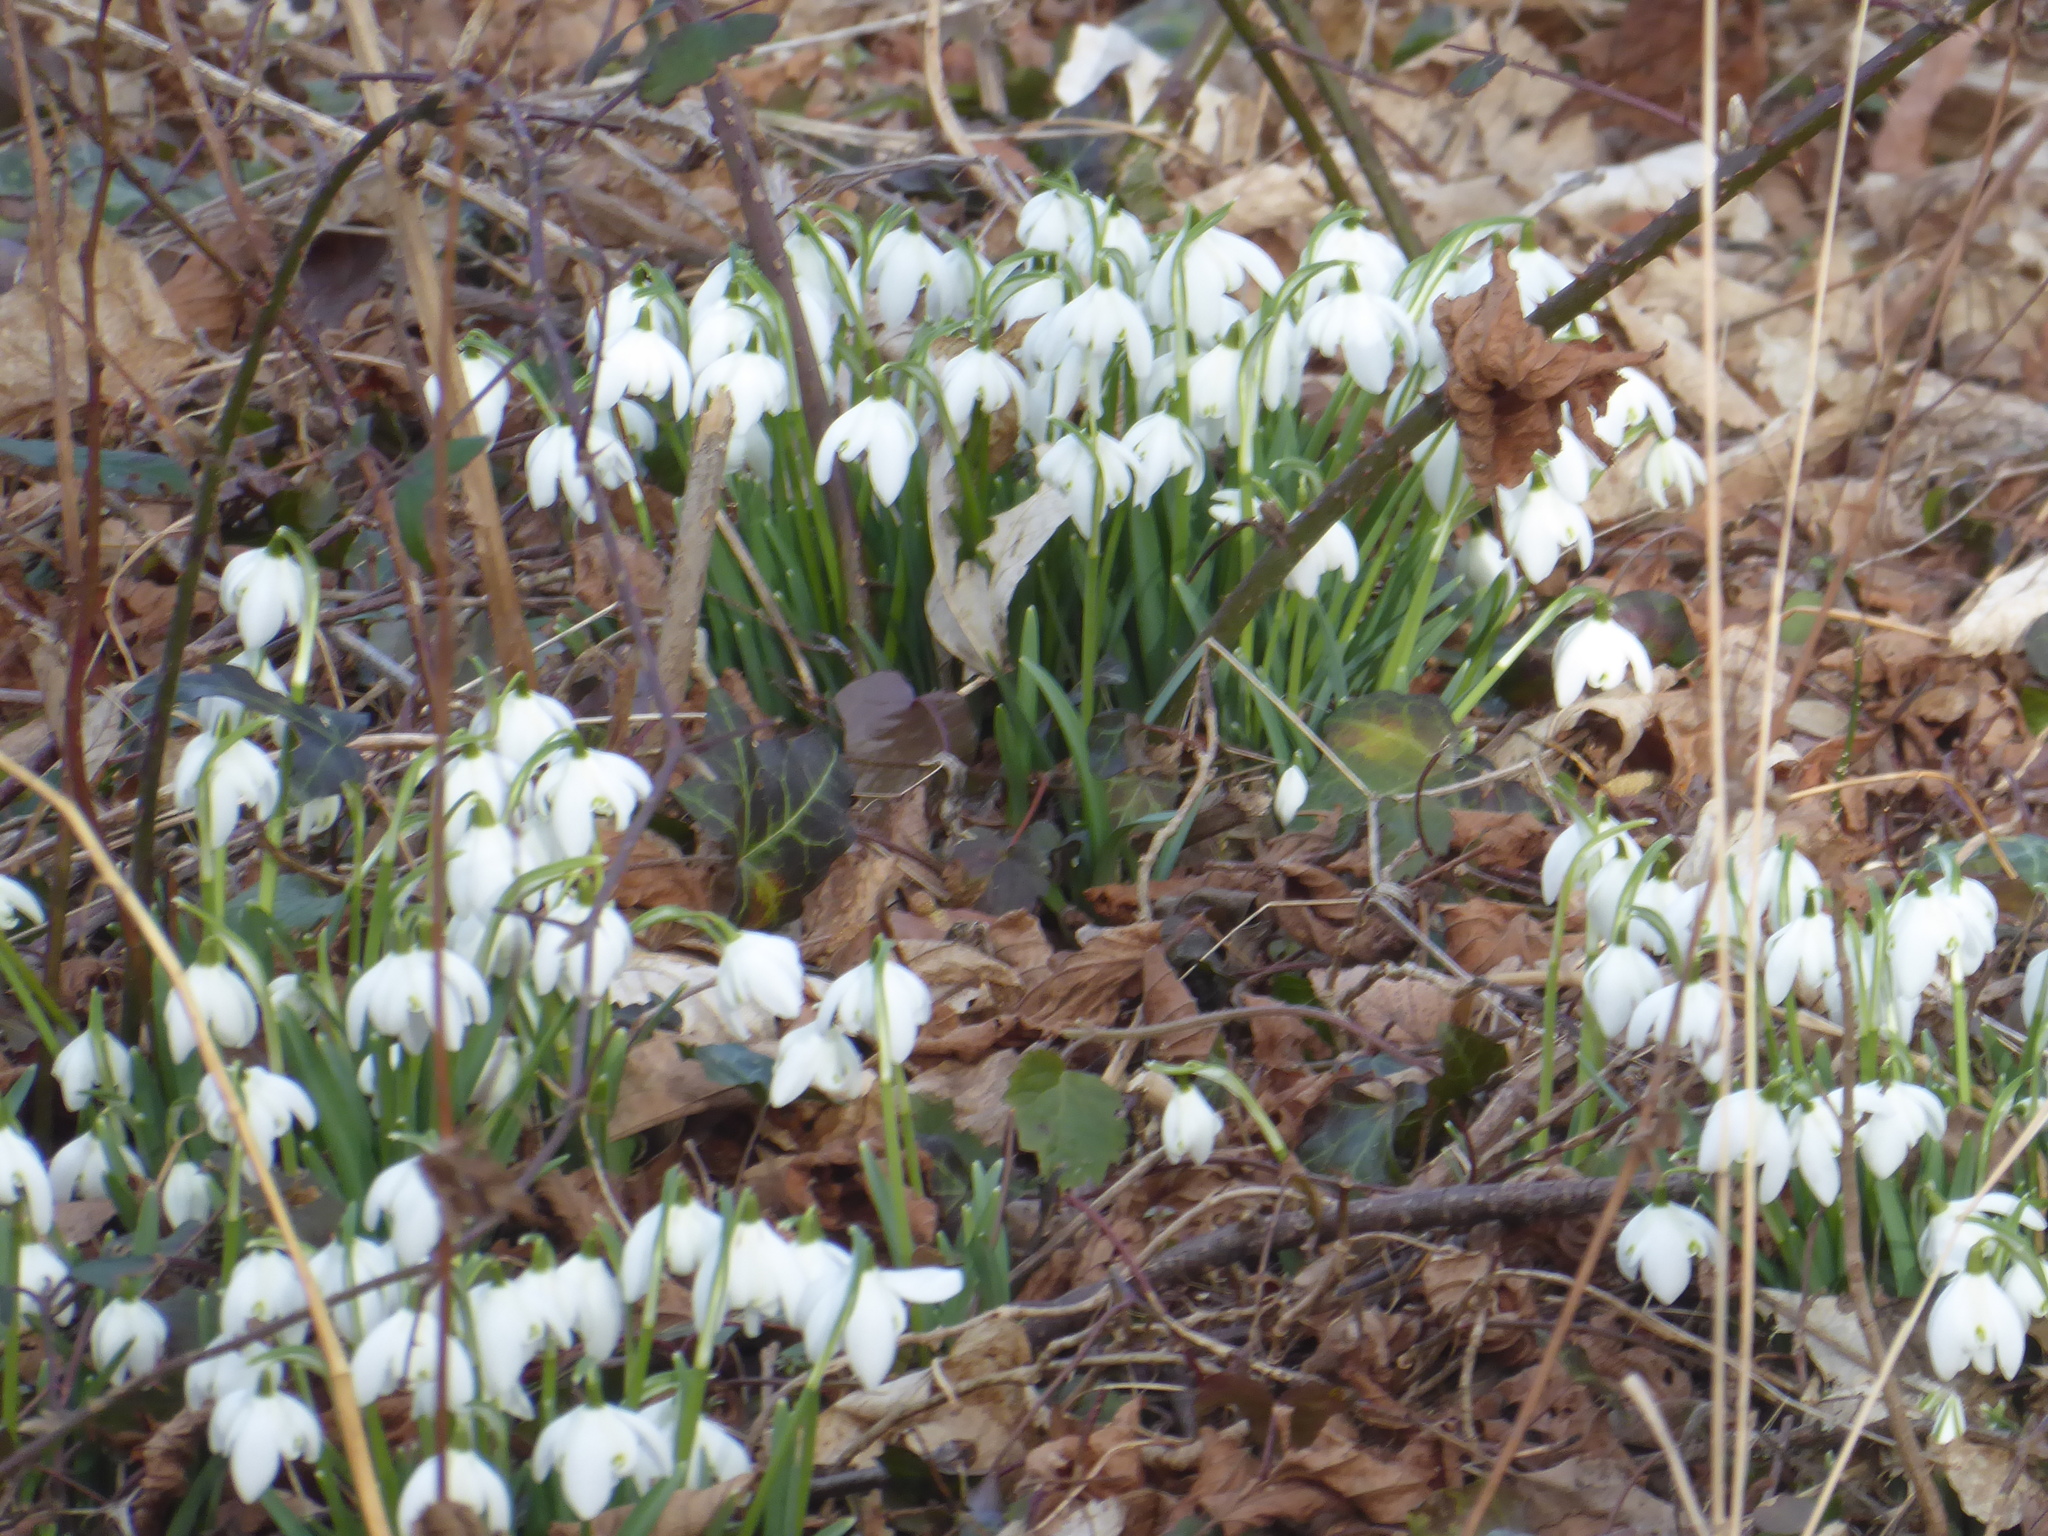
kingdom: Plantae
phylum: Tracheophyta
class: Liliopsida
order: Asparagales
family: Amaryllidaceae
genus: Galanthus
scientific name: Galanthus nivalis
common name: Snowdrop
